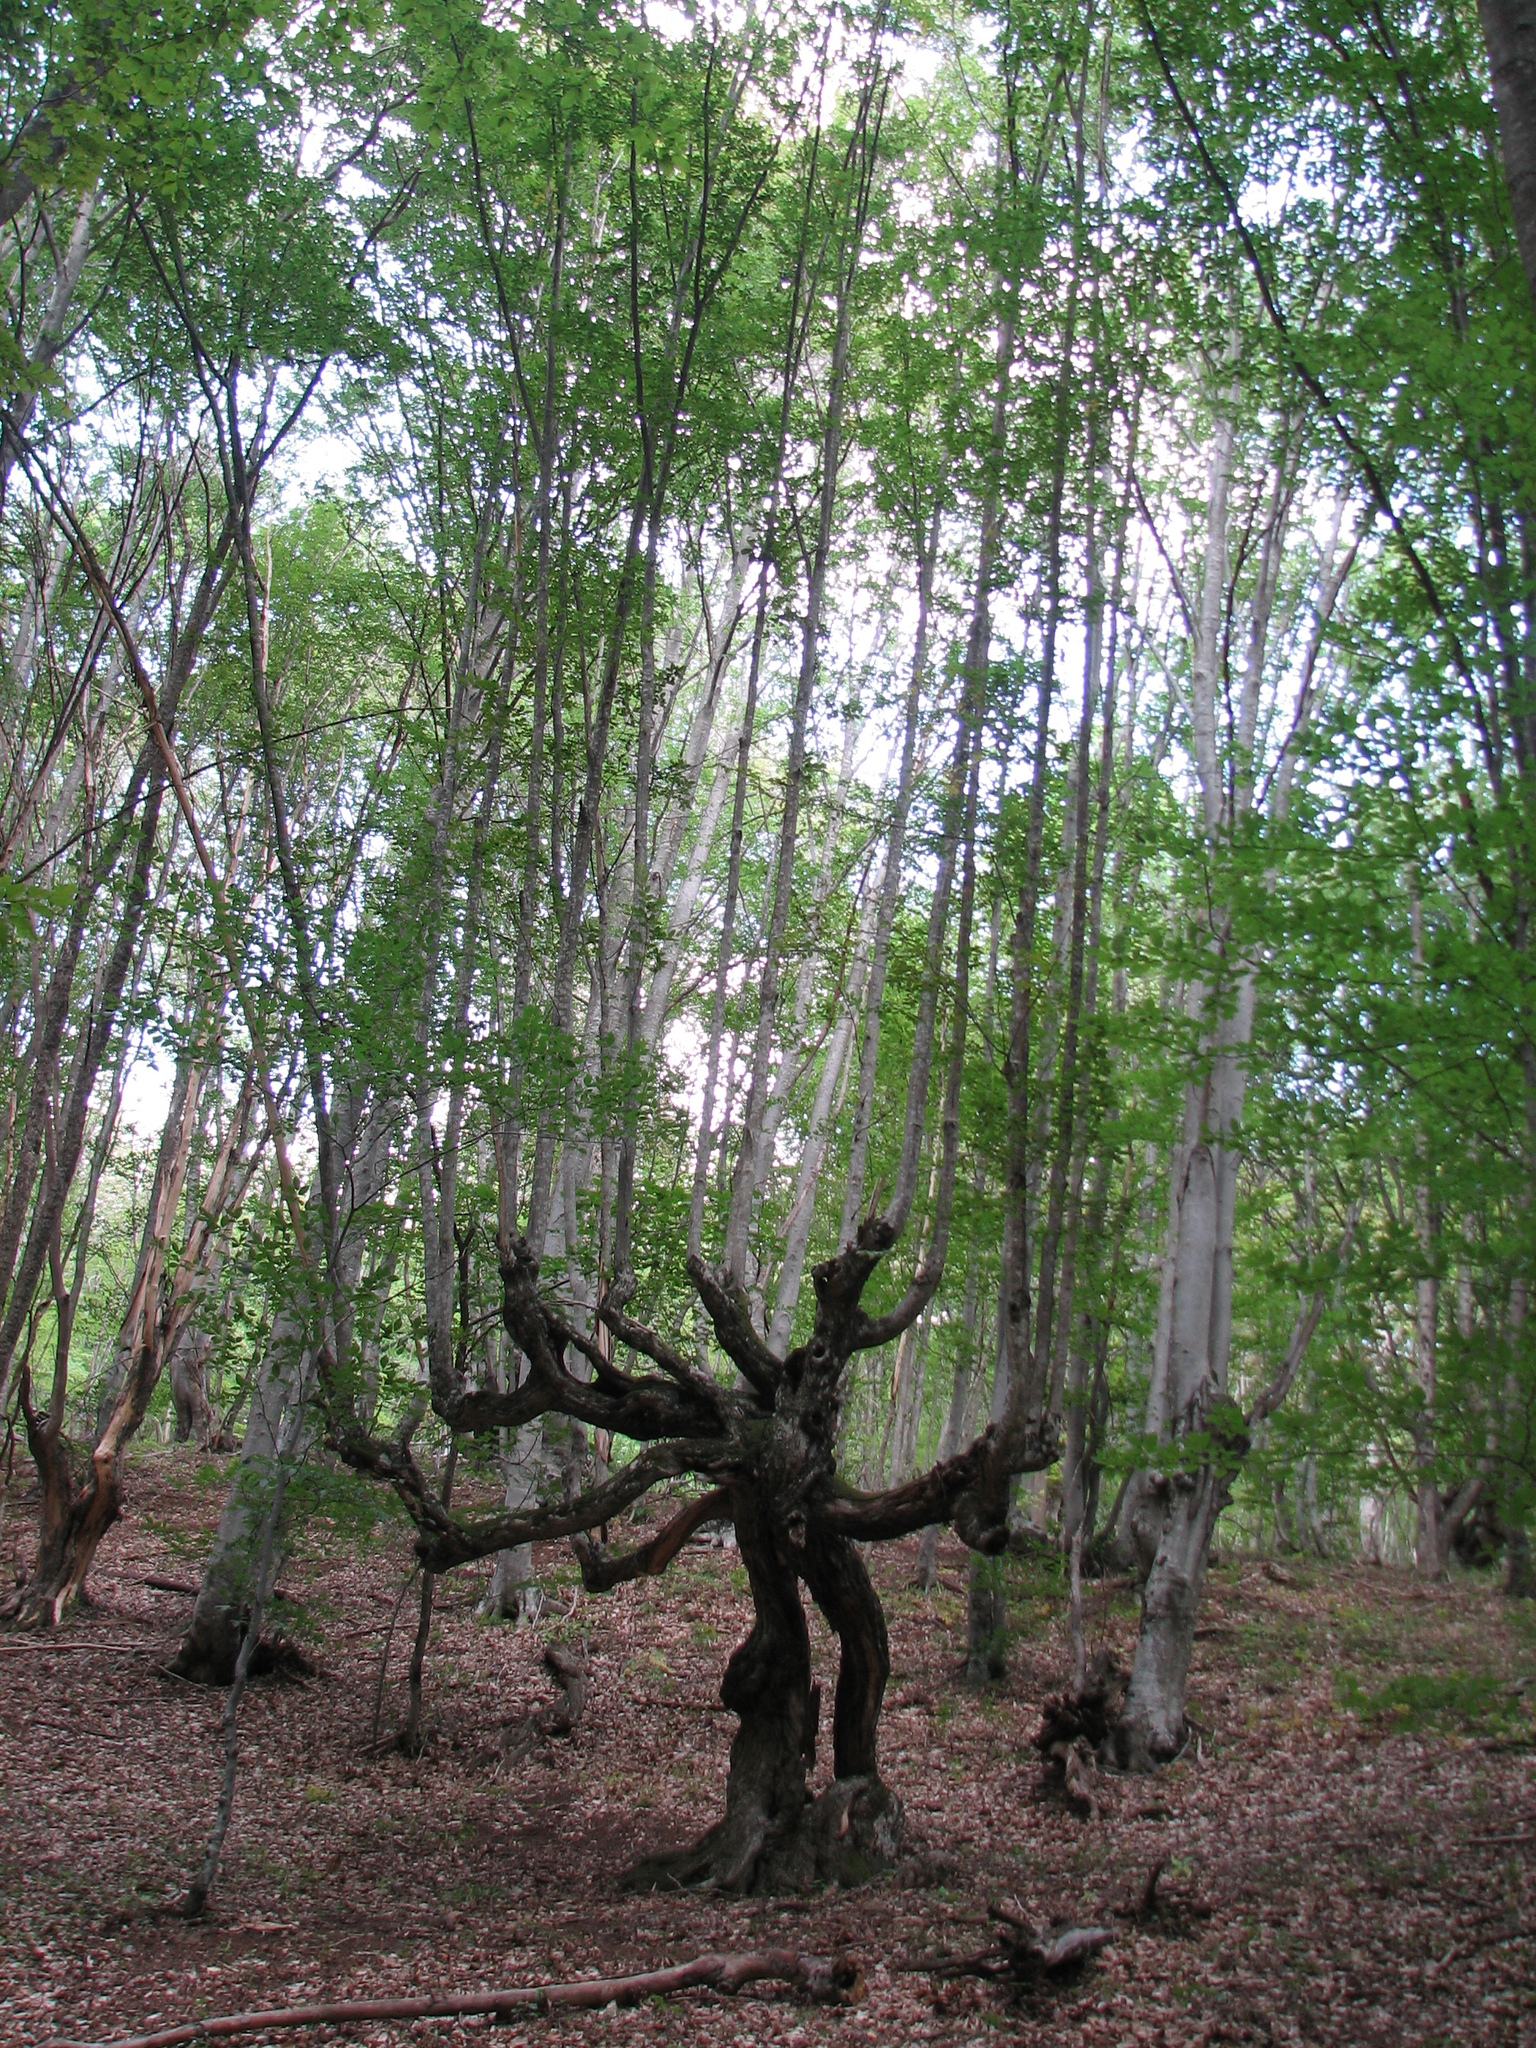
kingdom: Plantae
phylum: Tracheophyta
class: Magnoliopsida
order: Fagales
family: Fagaceae
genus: Fagus
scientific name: Fagus taurica
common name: Crimean beech
